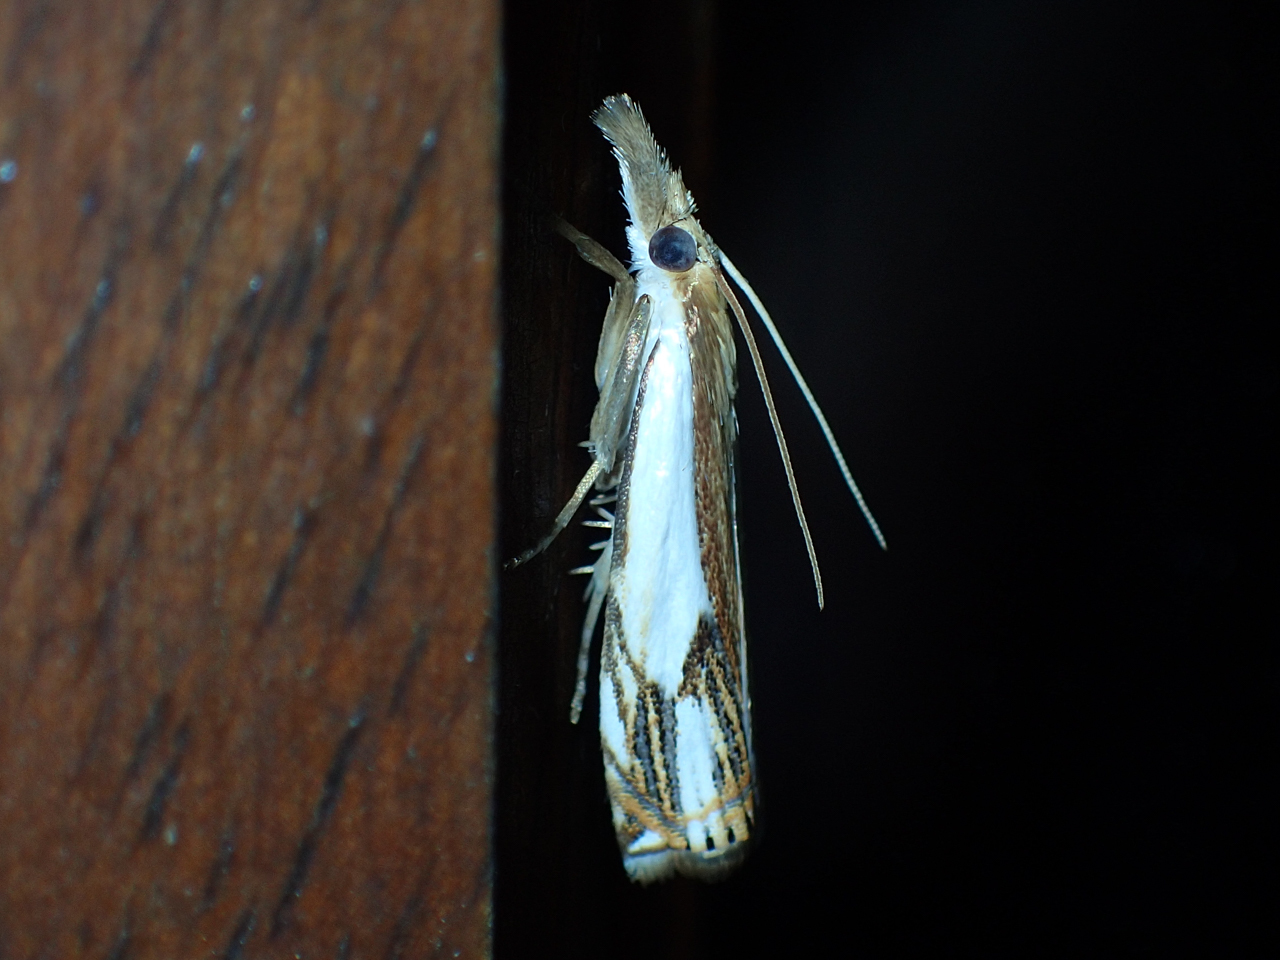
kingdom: Animalia
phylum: Arthropoda
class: Insecta
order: Lepidoptera
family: Crambidae
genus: Crambus
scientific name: Crambus agitatellus
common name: Double-banded grass-veneer
